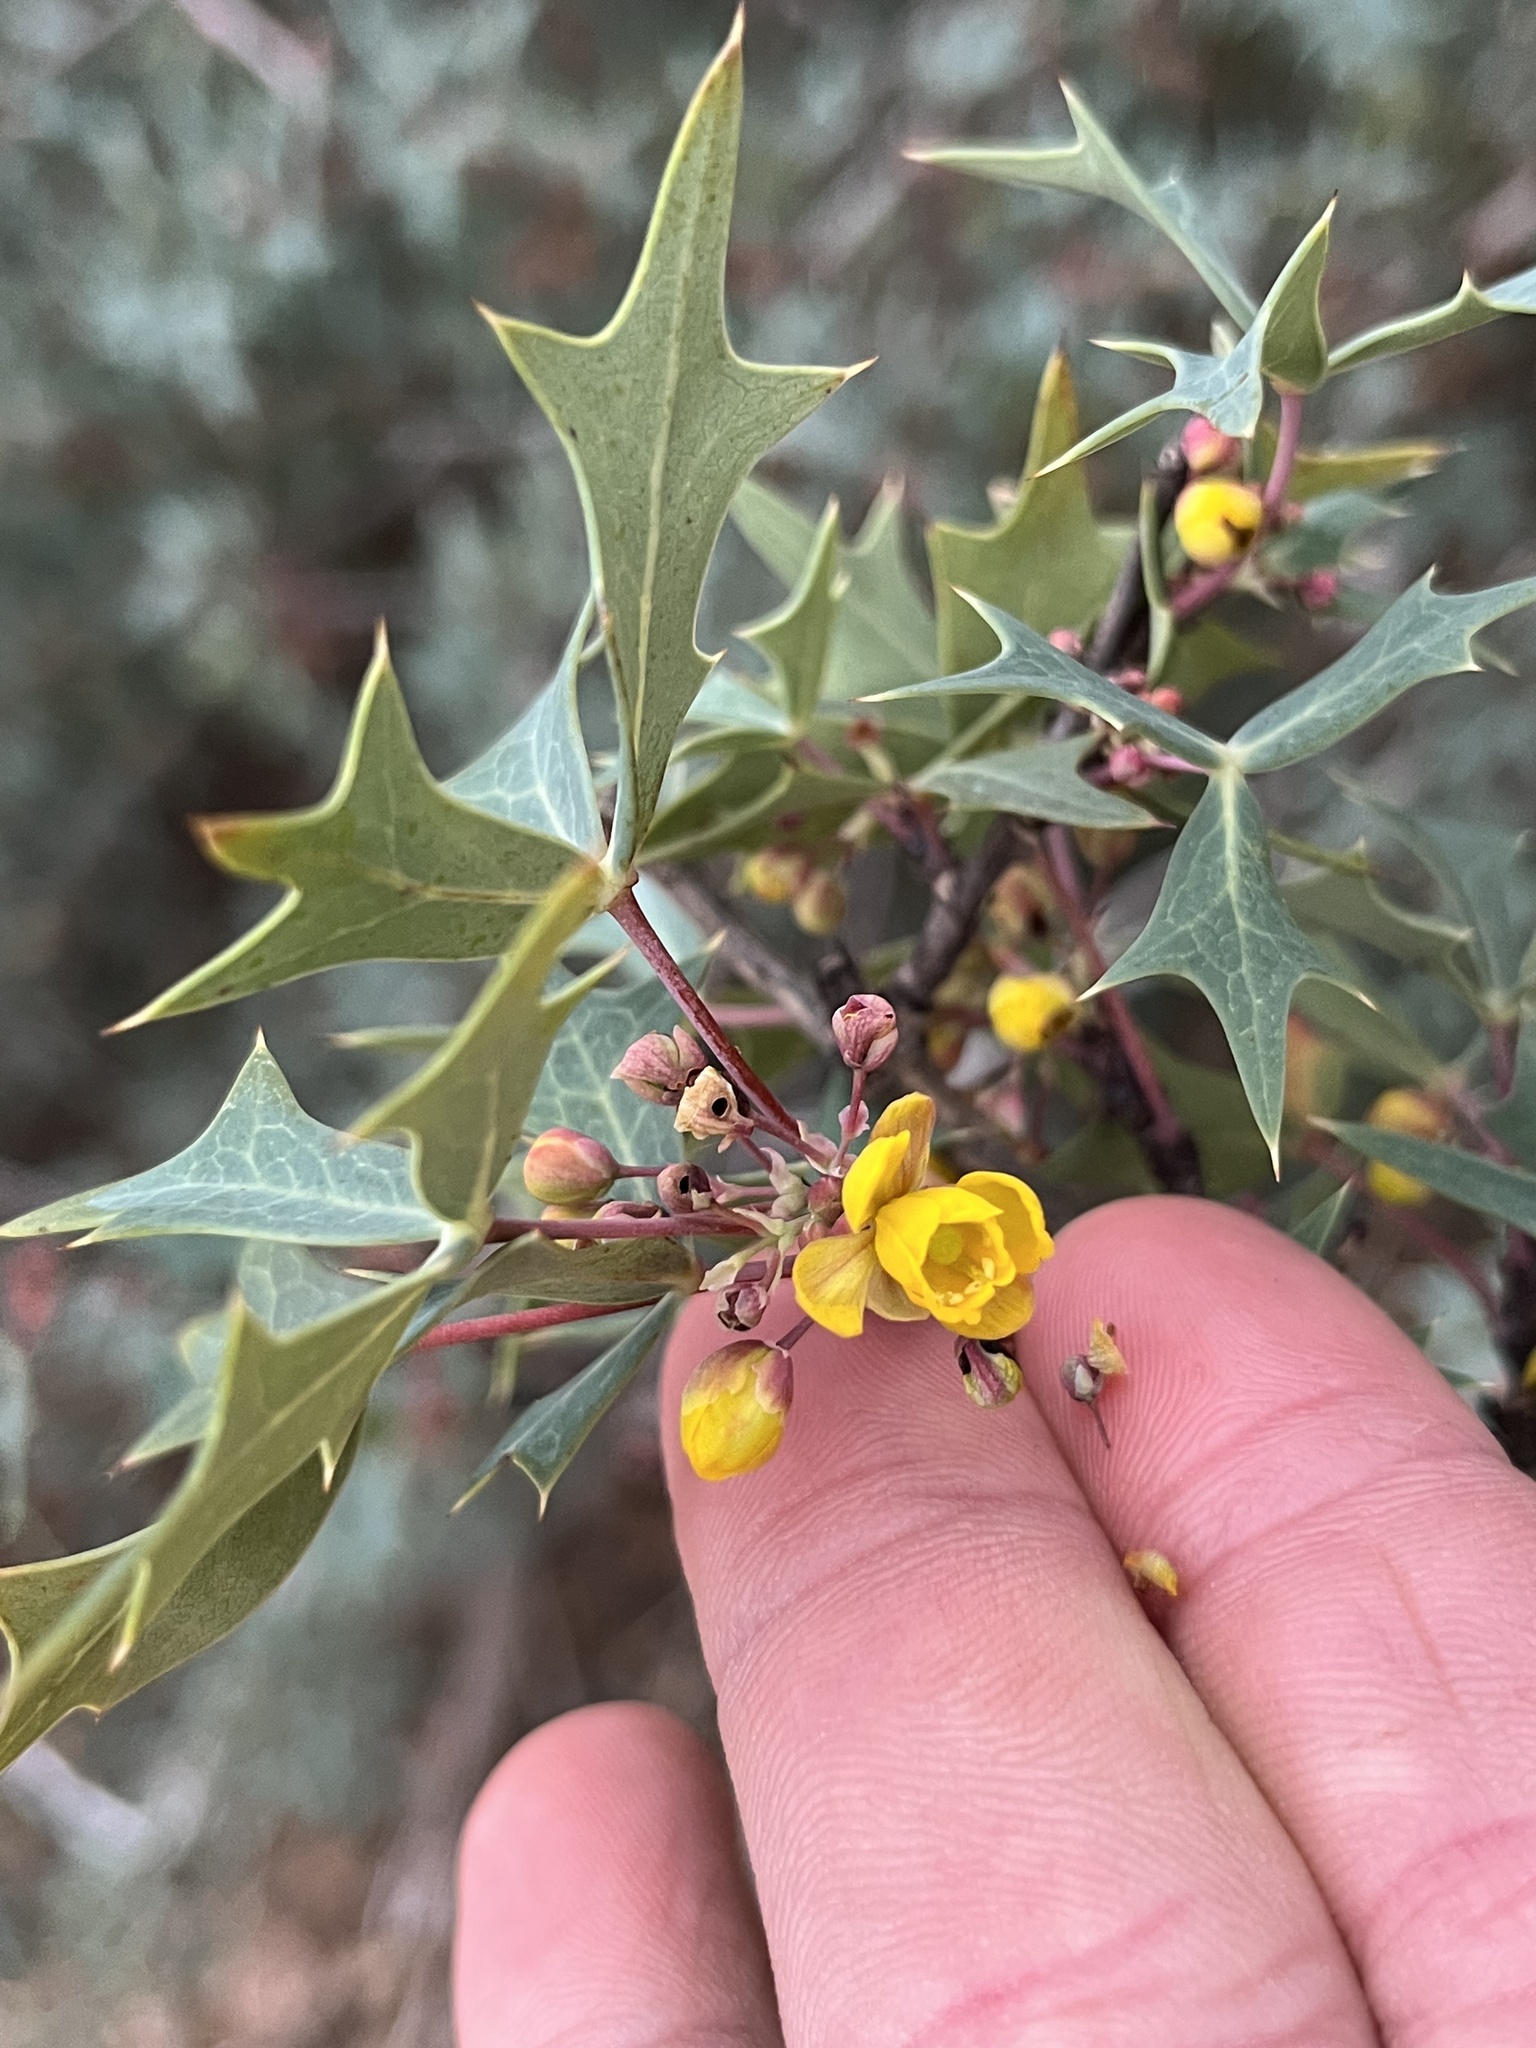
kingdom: Plantae
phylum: Tracheophyta
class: Magnoliopsida
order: Ranunculales
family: Berberidaceae
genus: Alloberberis
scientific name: Alloberberis trifoliolata
